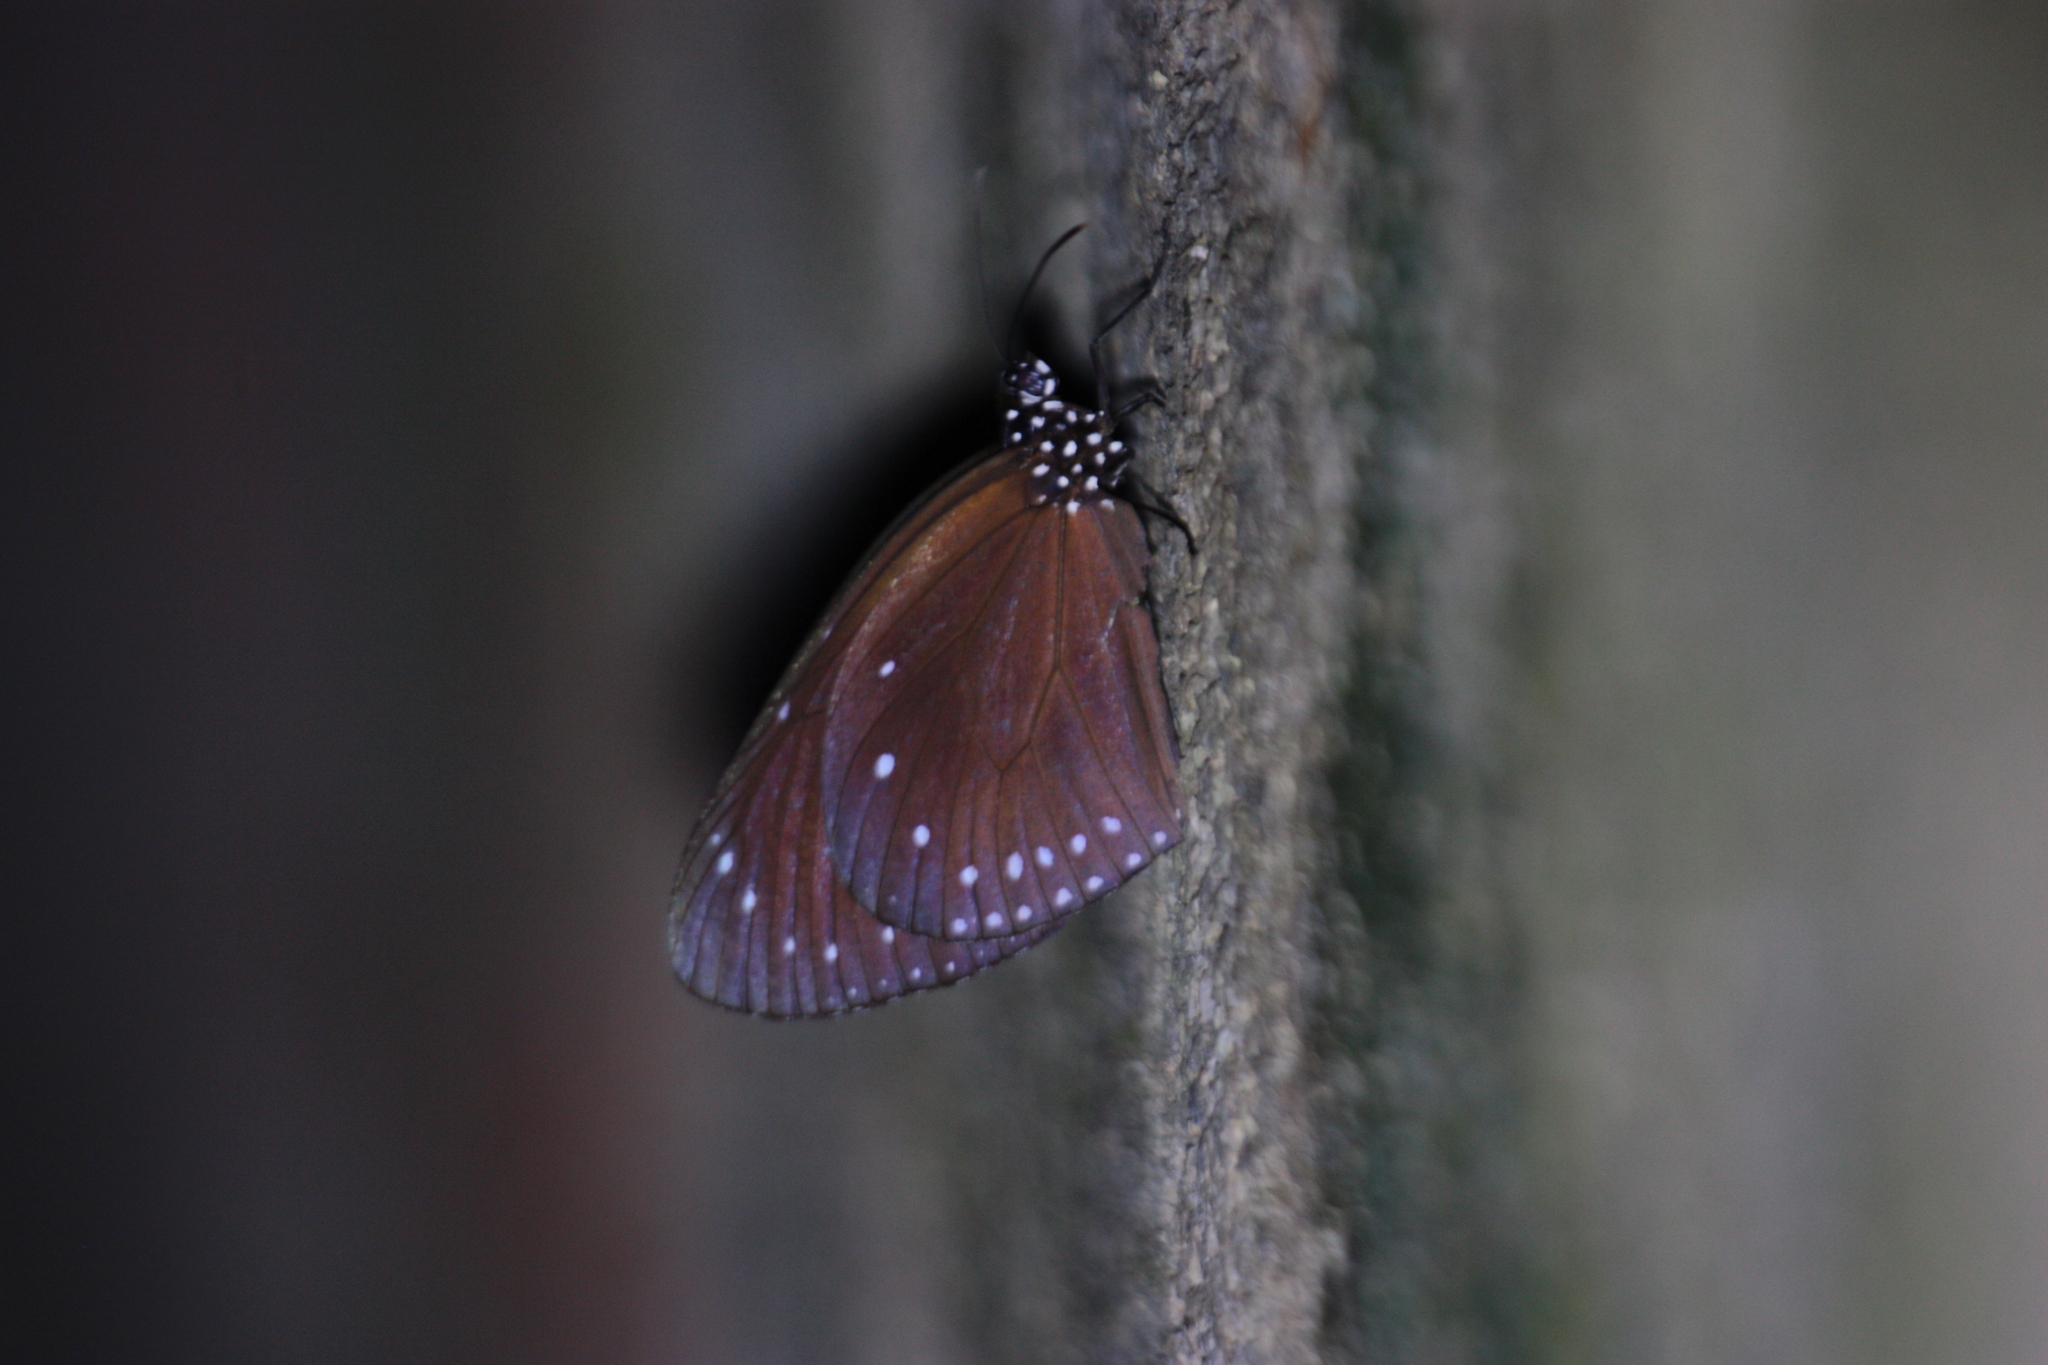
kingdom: Animalia
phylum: Arthropoda
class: Insecta
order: Lepidoptera
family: Nymphalidae
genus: Euploea
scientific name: Euploea tulliolus
